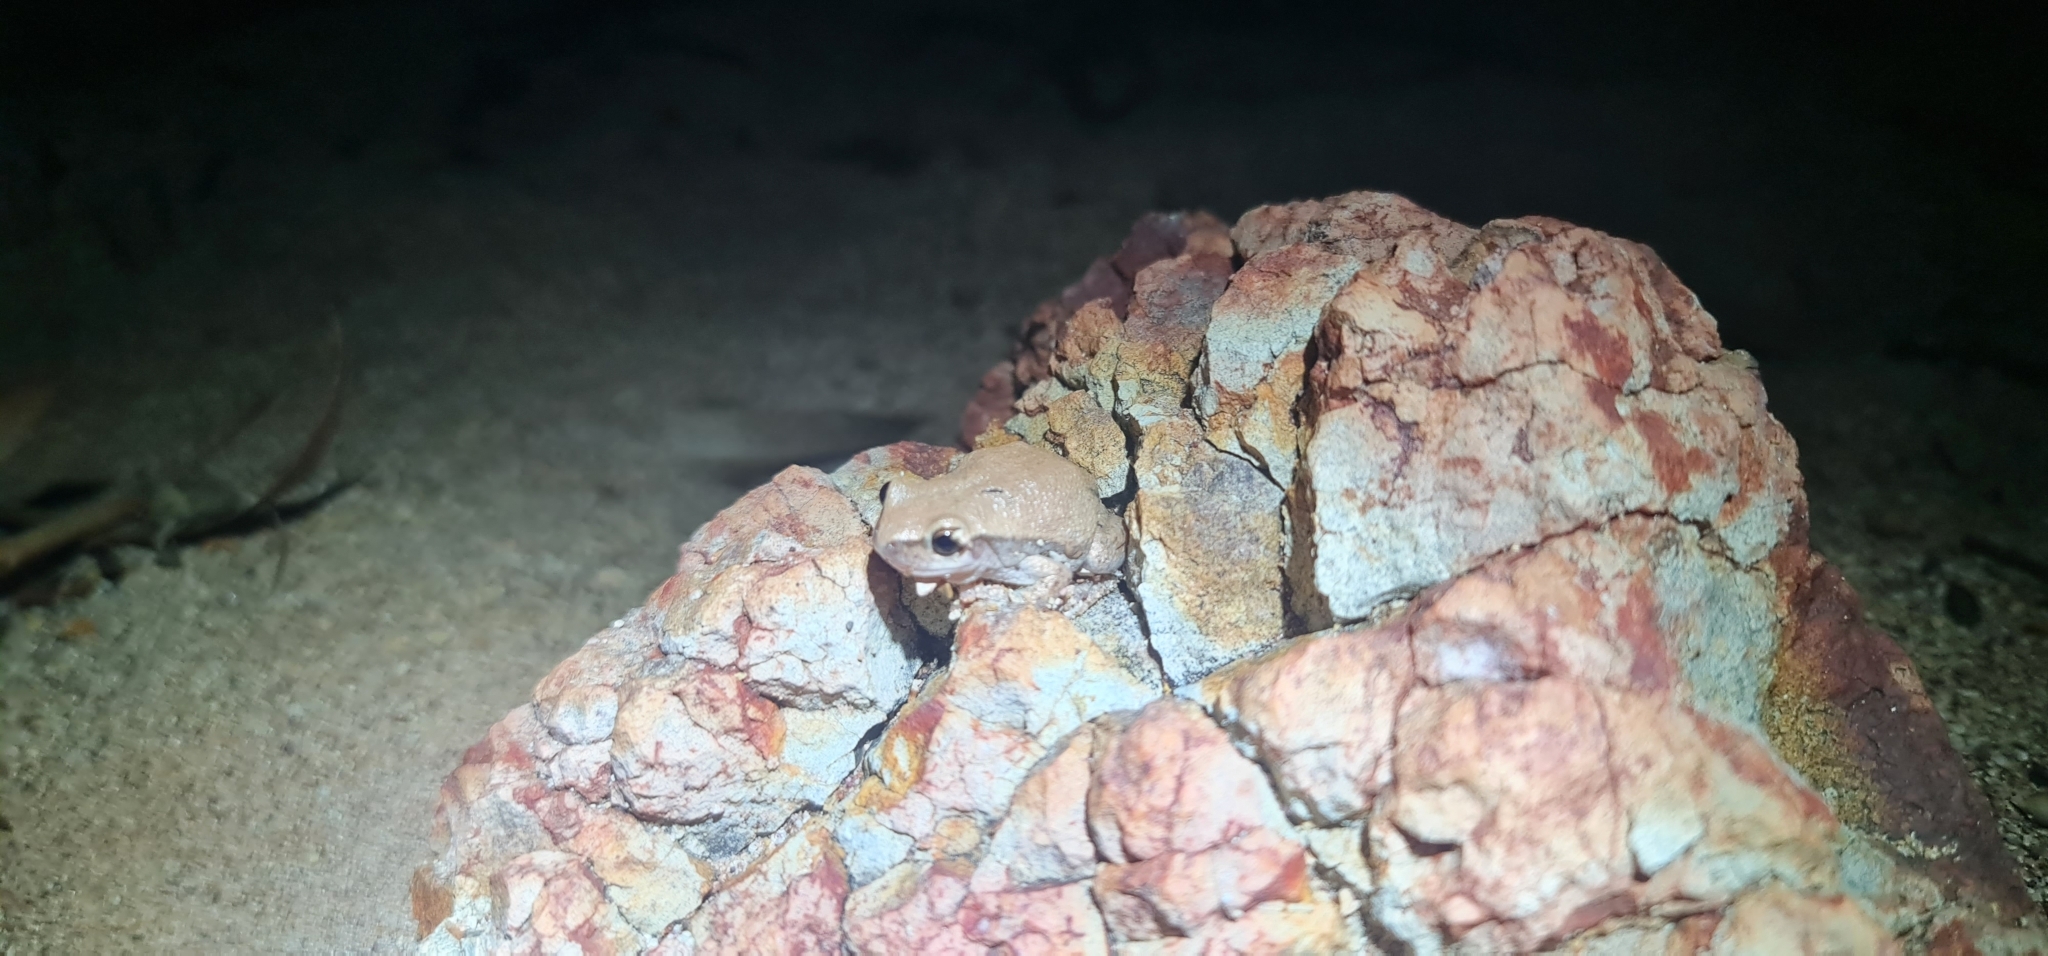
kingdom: Animalia
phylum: Chordata
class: Amphibia
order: Anura
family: Pelodryadidae
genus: Litoria
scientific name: Litoria rubella
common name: Desert tree frog
